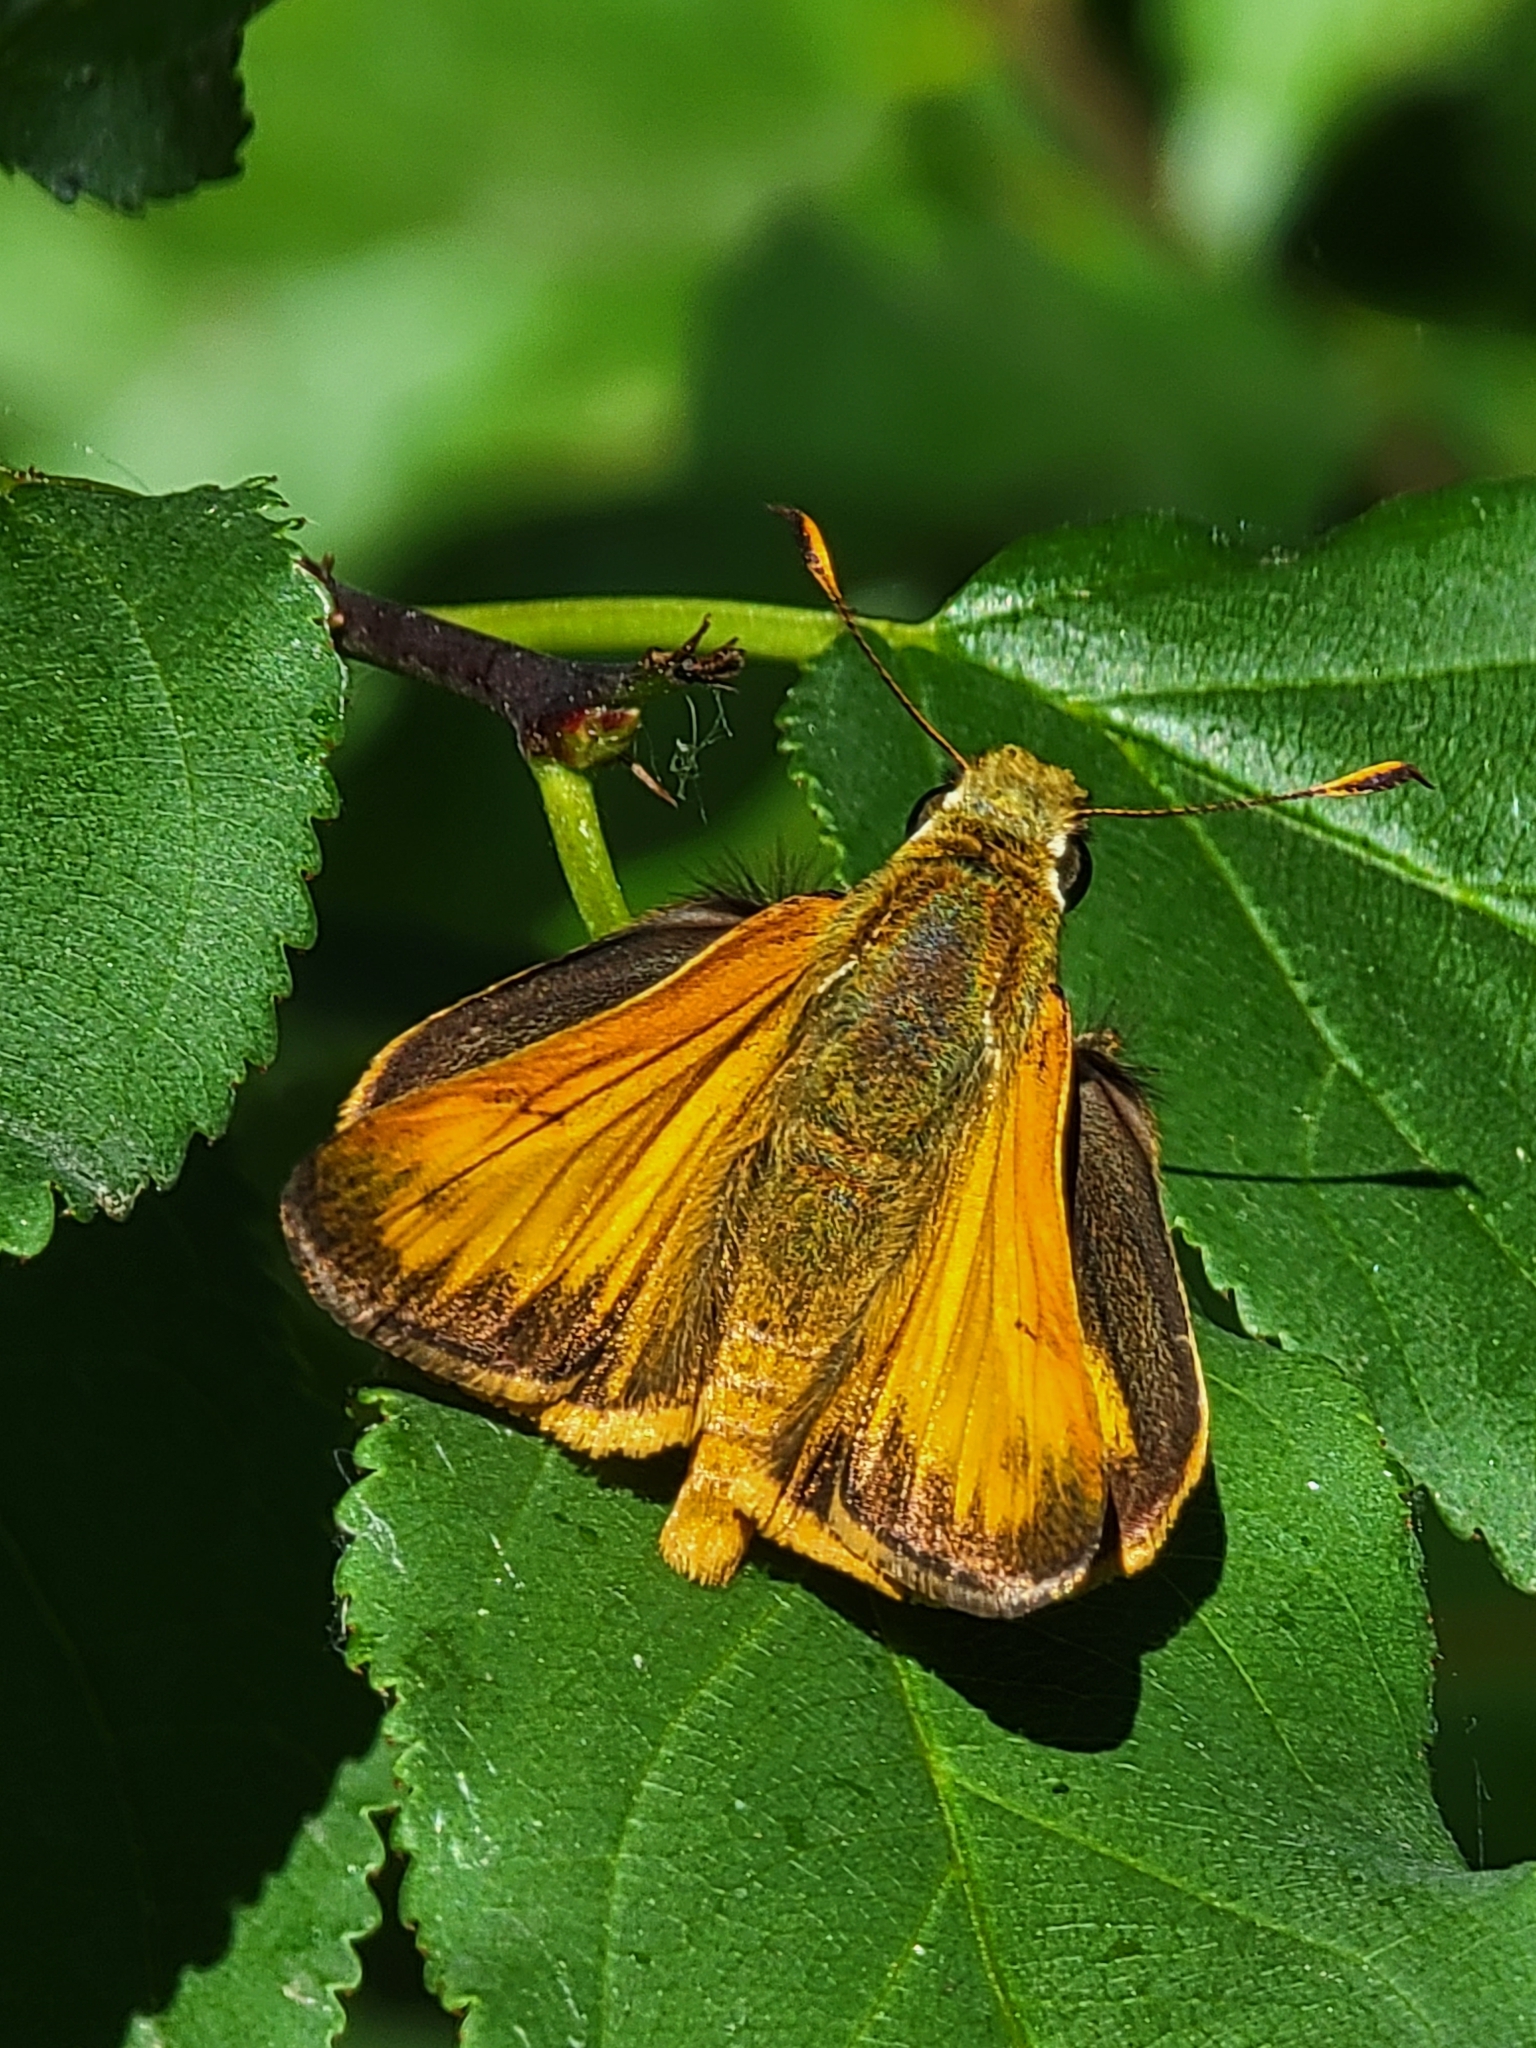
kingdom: Animalia
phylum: Arthropoda
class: Insecta
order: Lepidoptera
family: Hesperiidae
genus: Lon
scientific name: Lon taxiles
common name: Taxiles skipper
